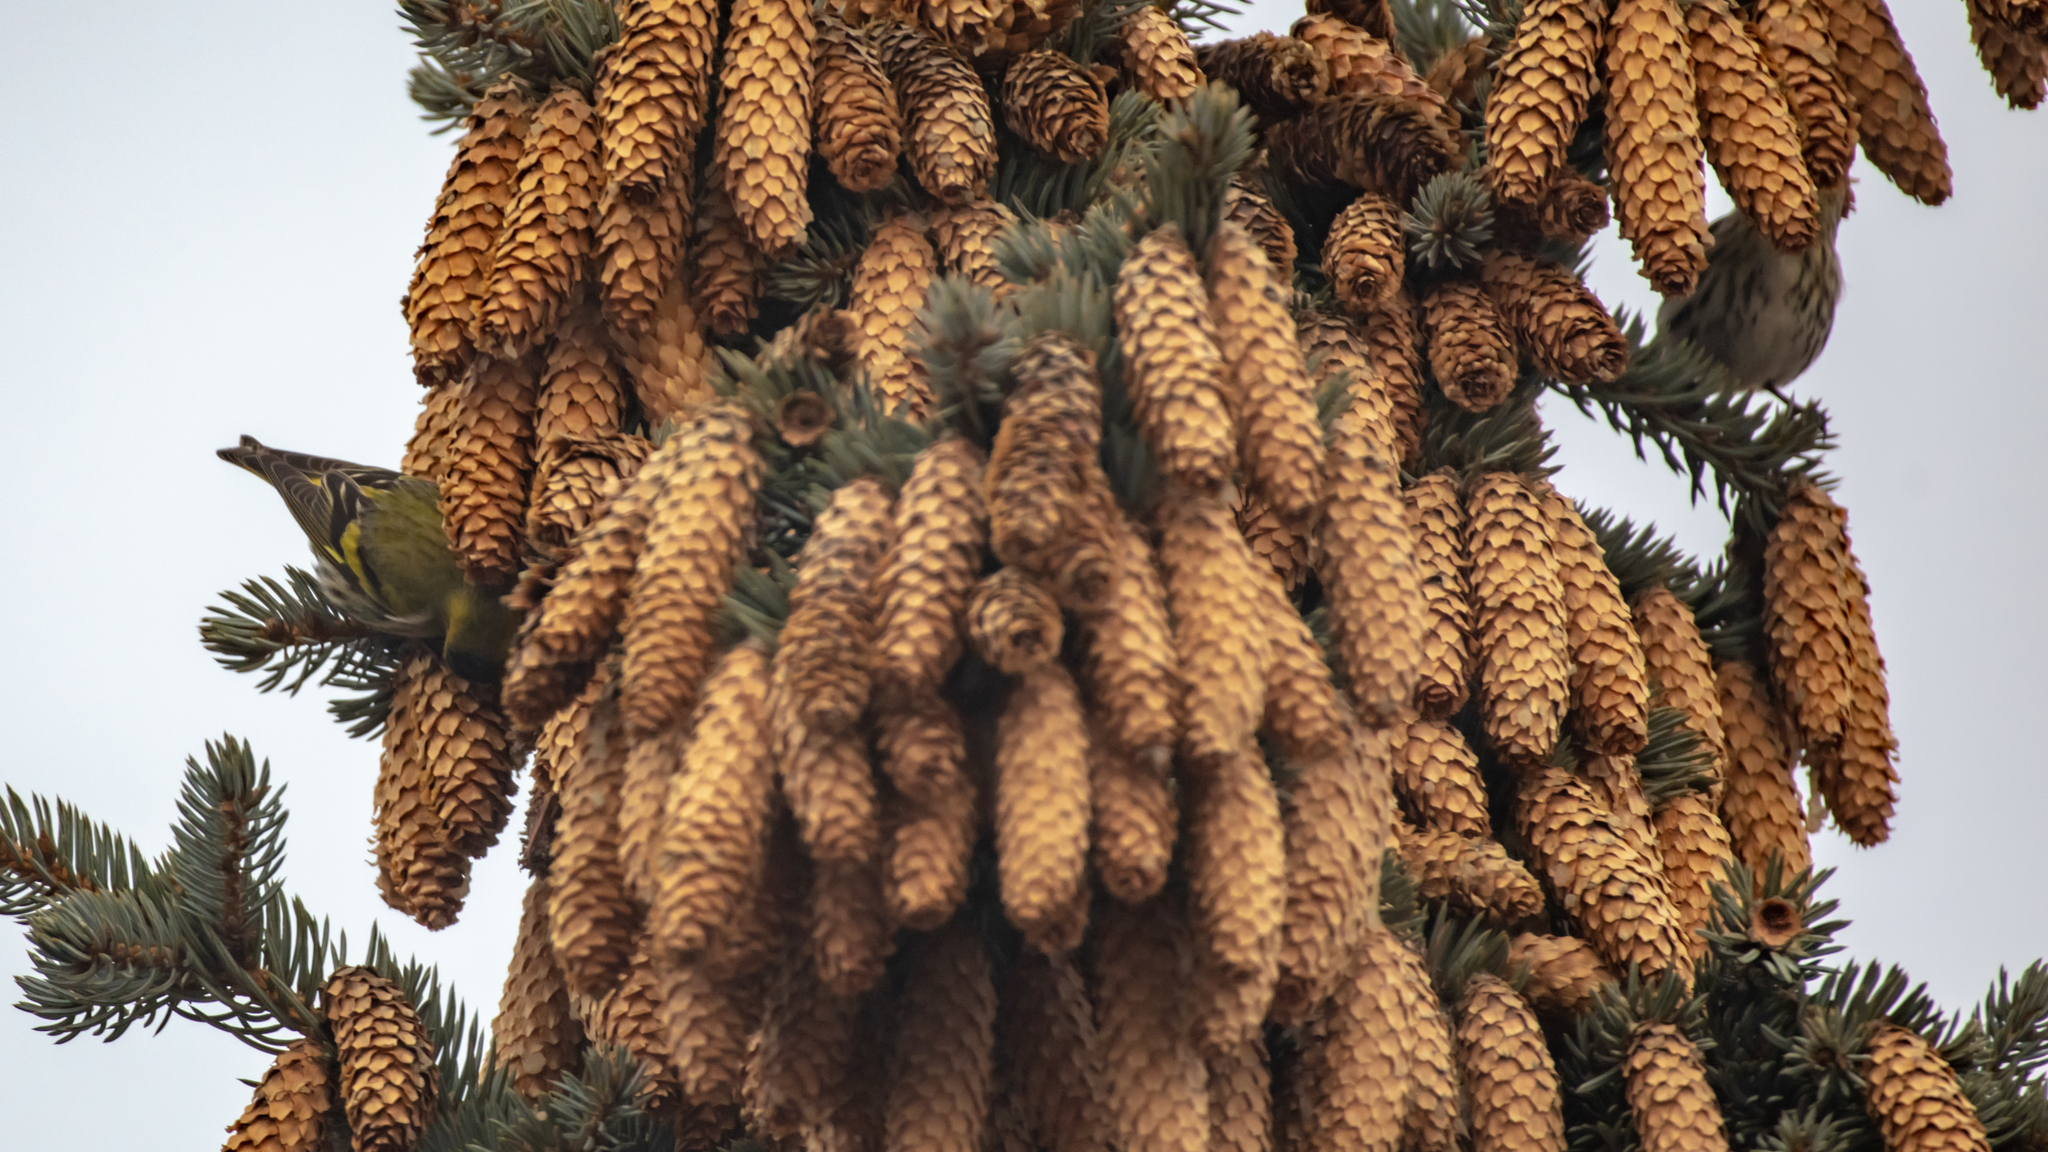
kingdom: Animalia
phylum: Chordata
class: Aves
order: Passeriformes
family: Fringillidae
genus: Spinus
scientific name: Spinus spinus
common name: Eurasian siskin
